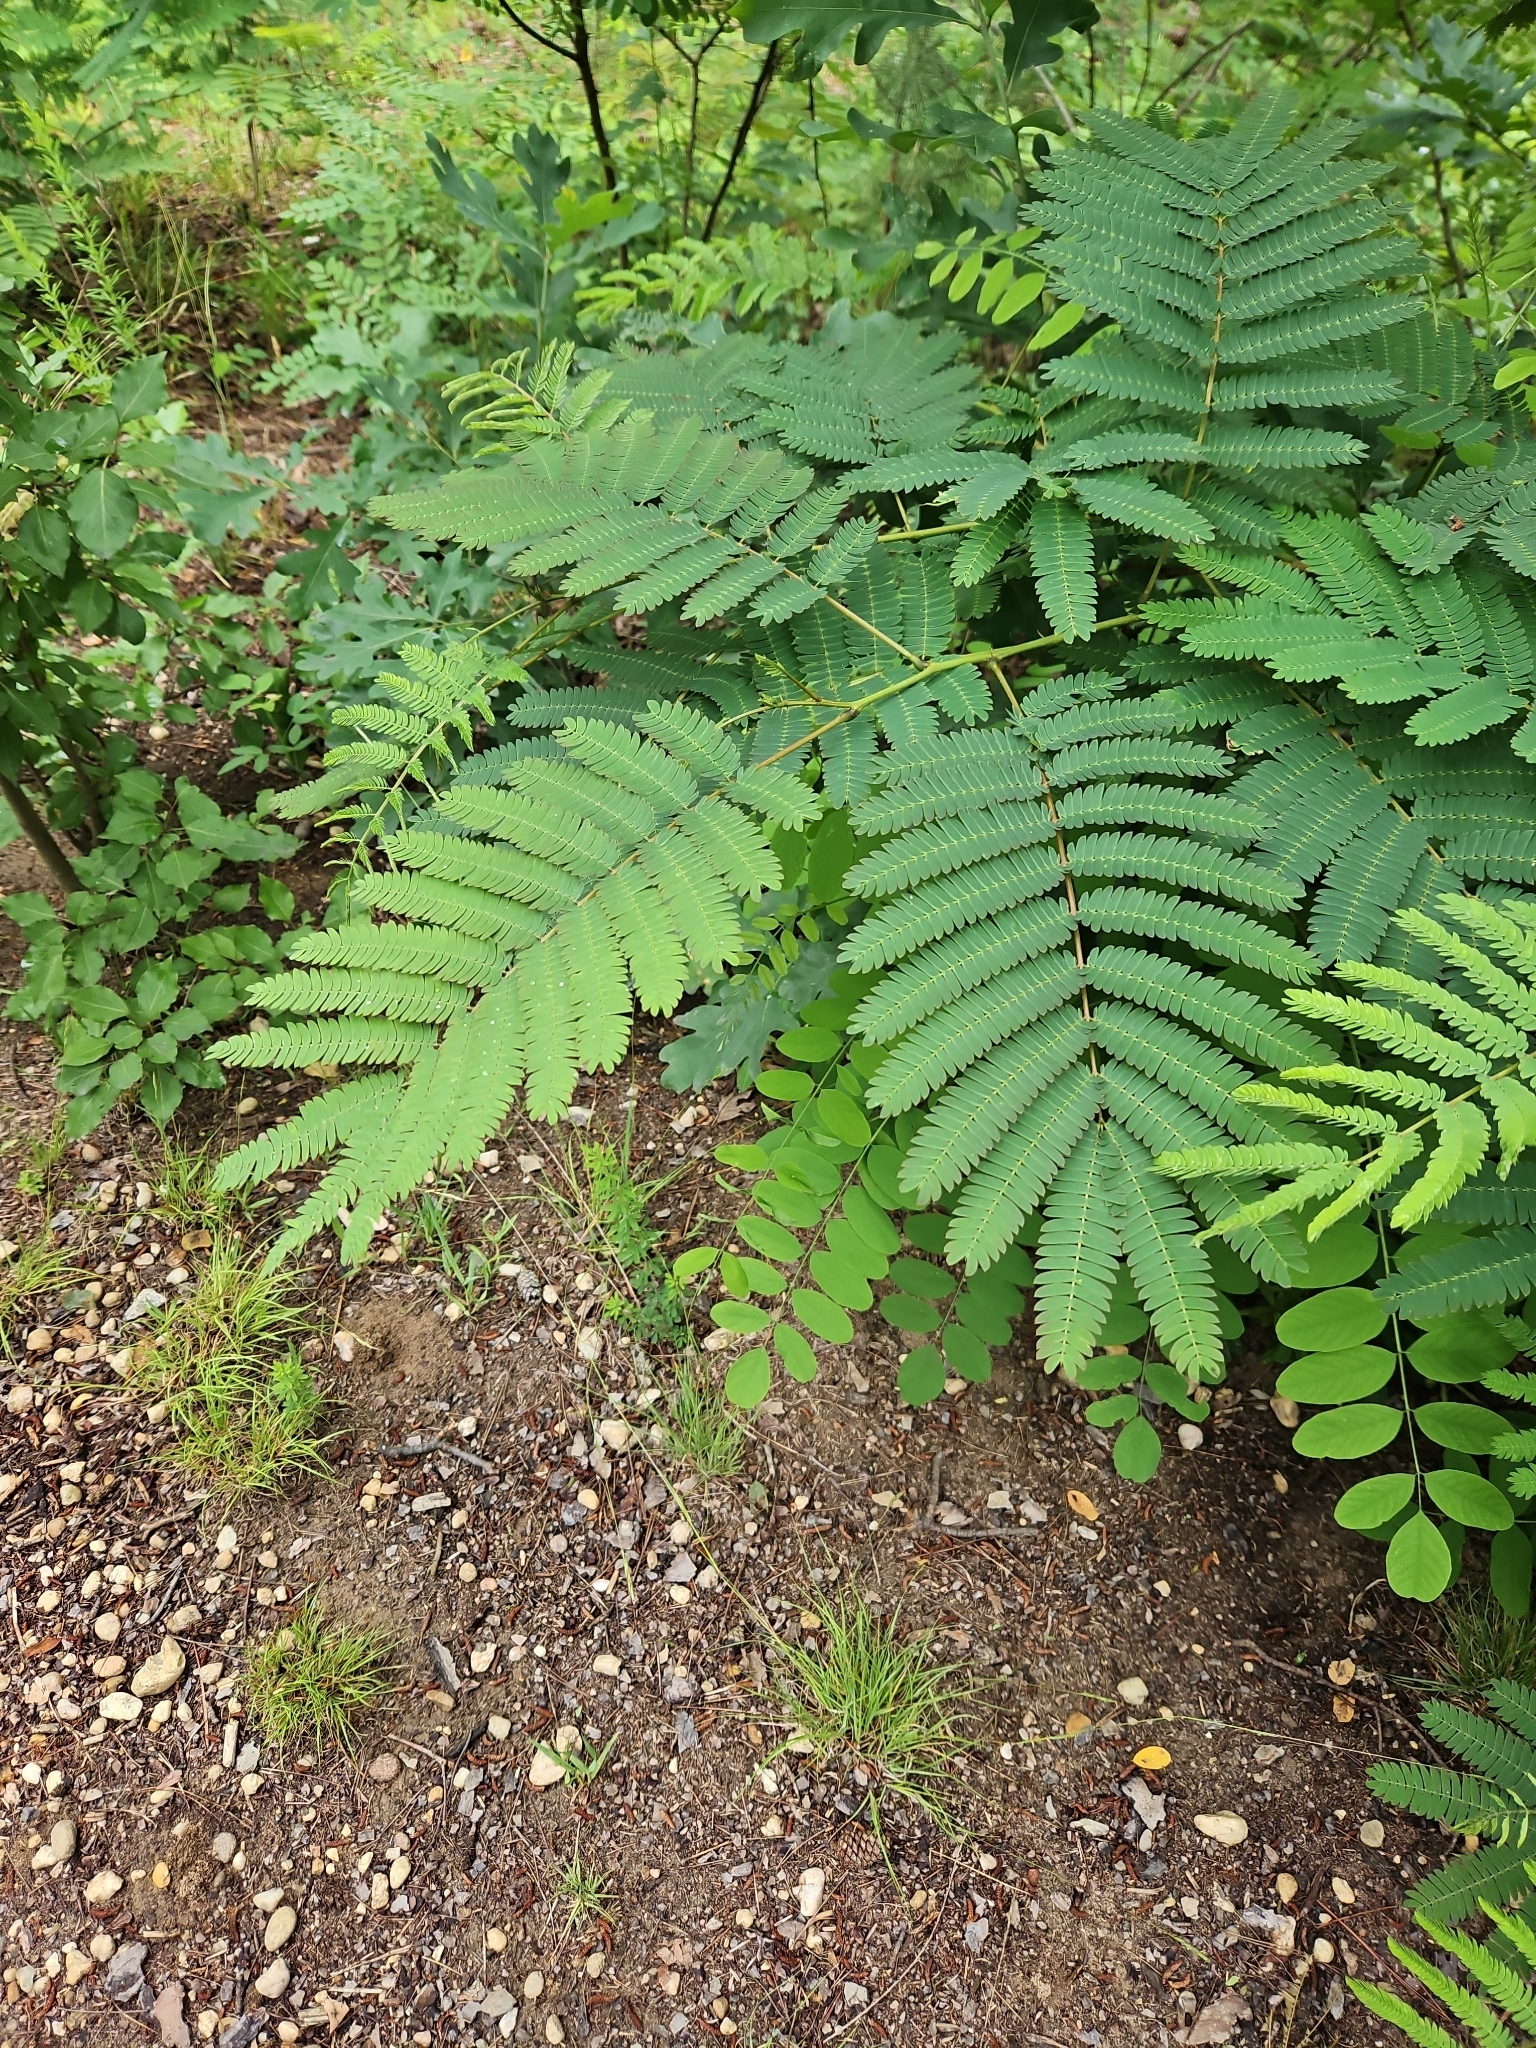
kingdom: Plantae
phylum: Tracheophyta
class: Magnoliopsida
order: Fabales
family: Fabaceae
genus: Albizia
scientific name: Albizia julibrissin
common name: Silktree
